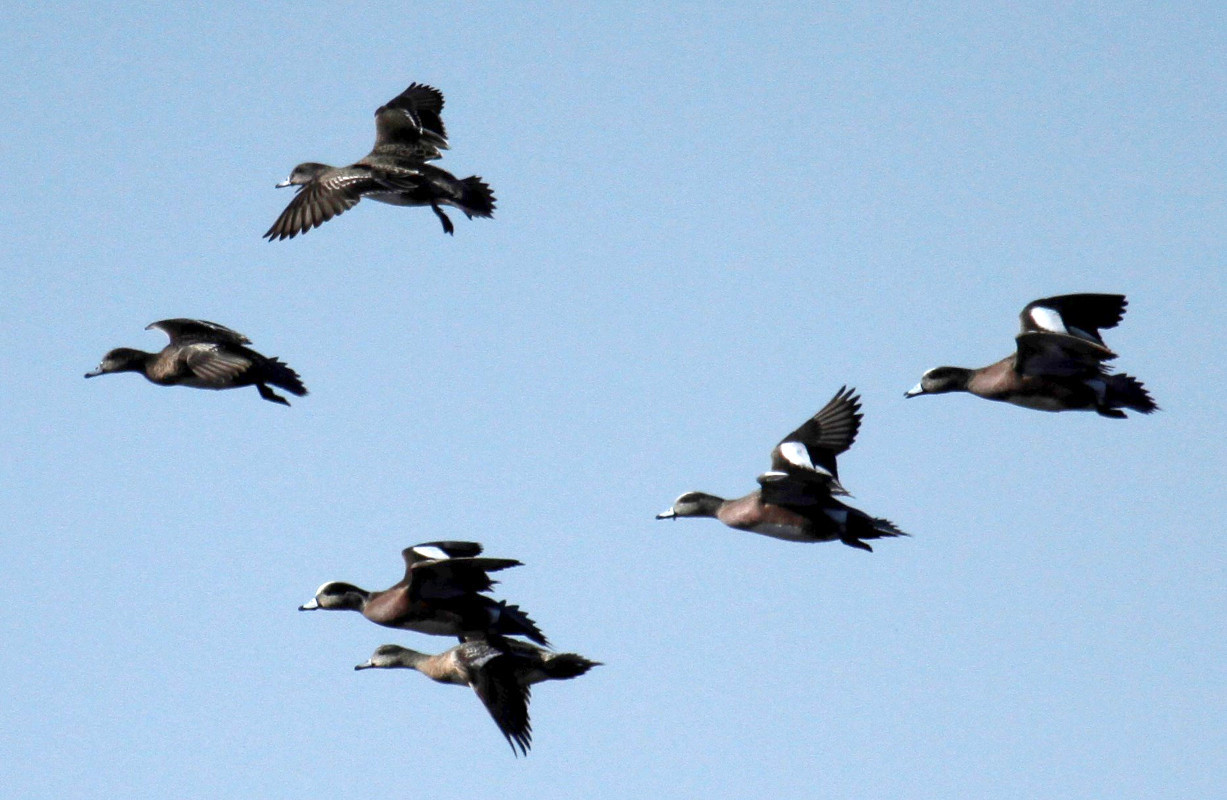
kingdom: Animalia
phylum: Chordata
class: Aves
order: Anseriformes
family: Anatidae
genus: Mareca
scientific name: Mareca americana
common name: American wigeon
